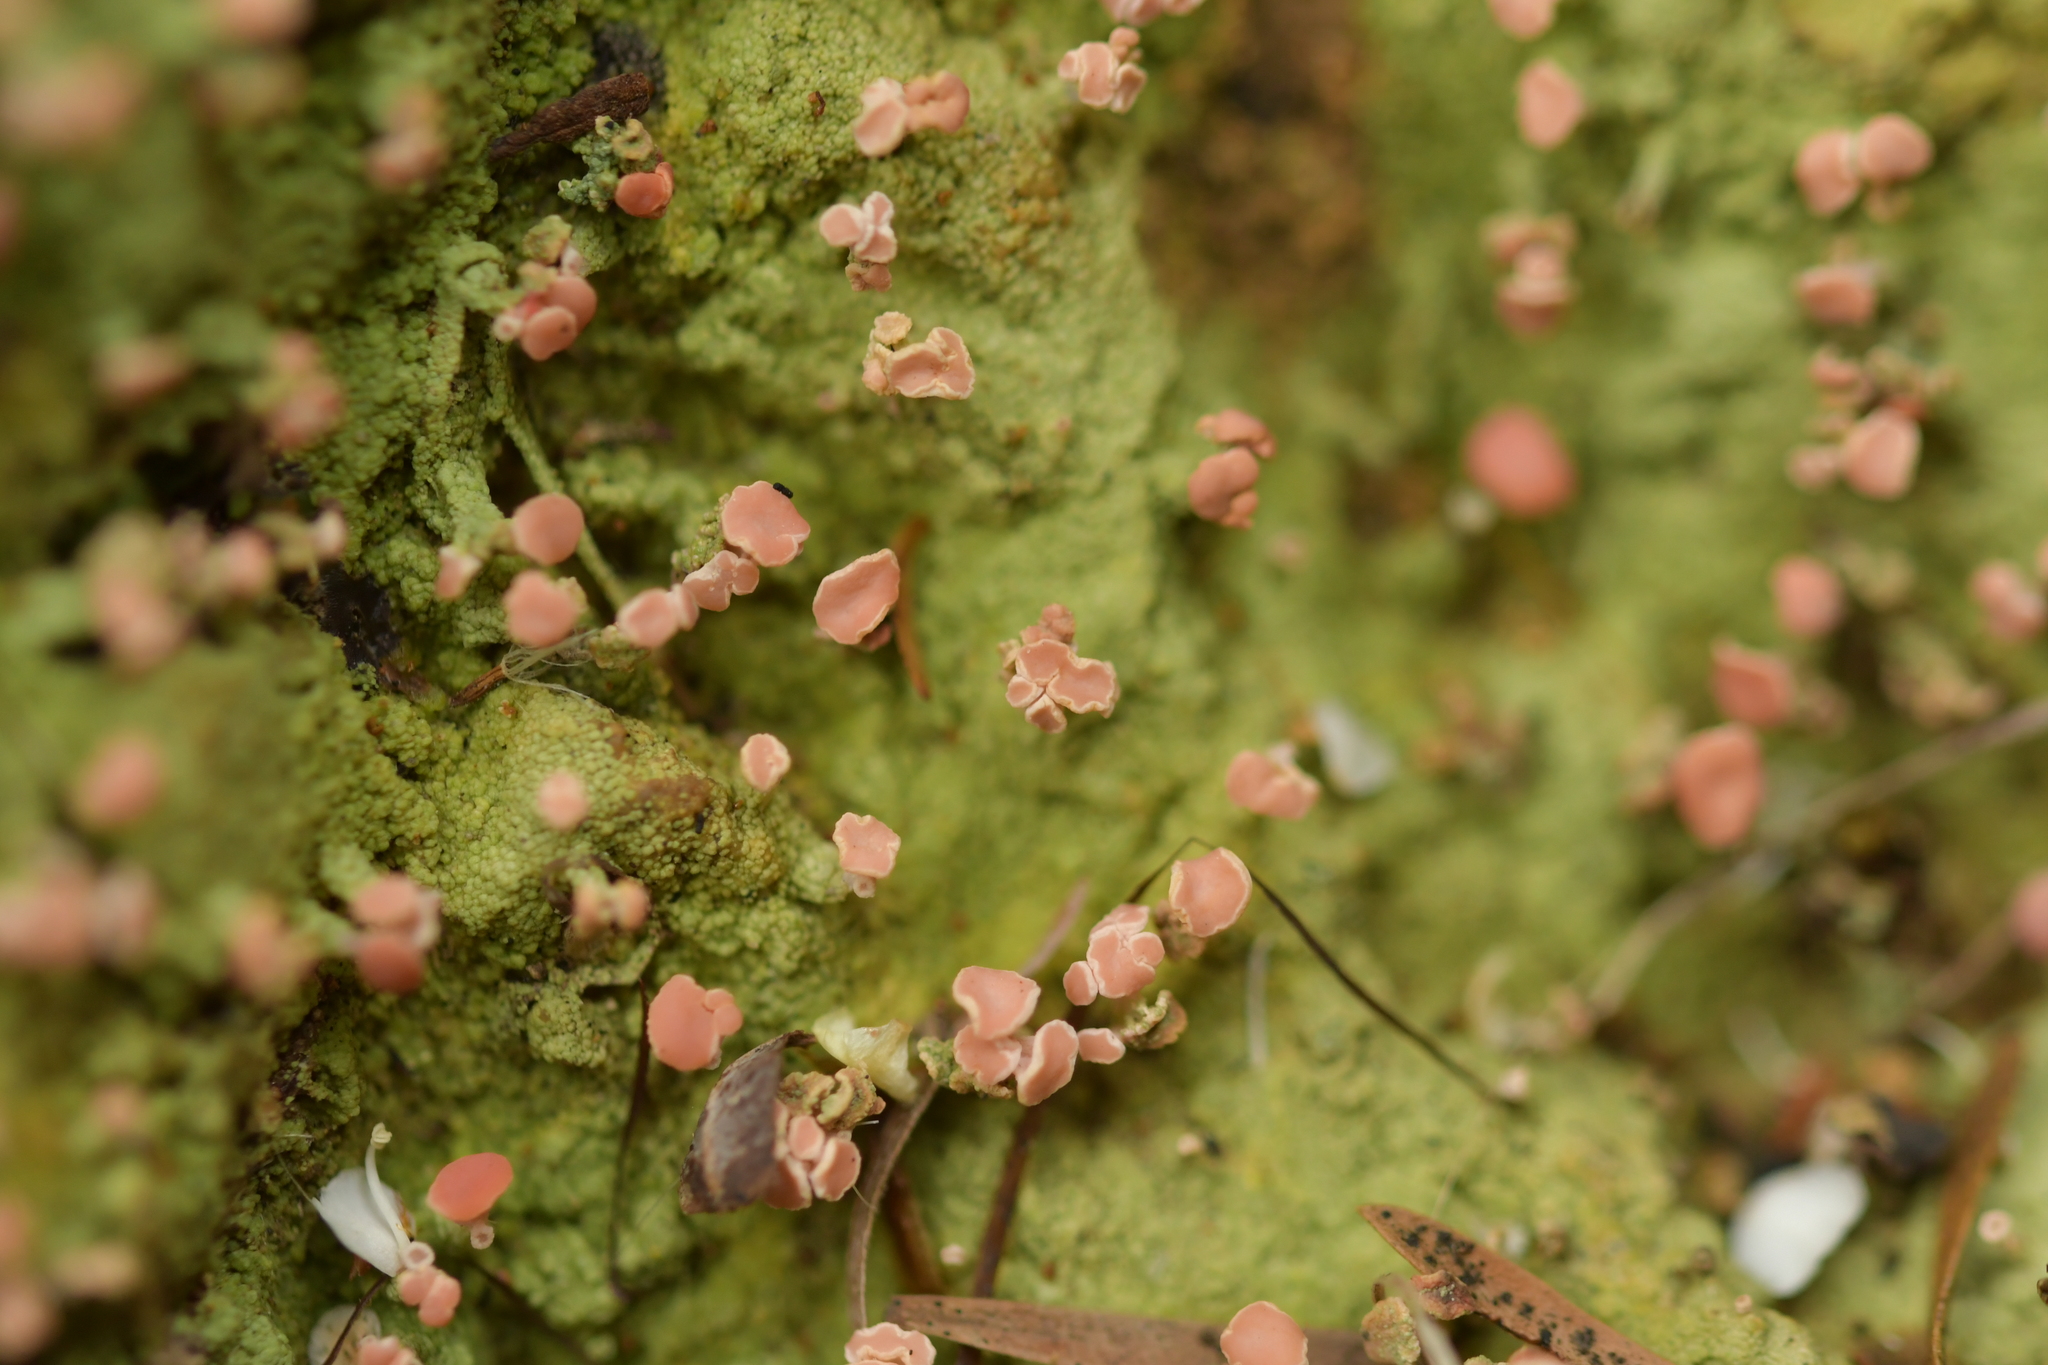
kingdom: Fungi
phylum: Ascomycota
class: Lecanoromycetes
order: Baeomycetales
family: Baeomycetaceae
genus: Baeomyces
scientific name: Baeomyces heteromorphus
